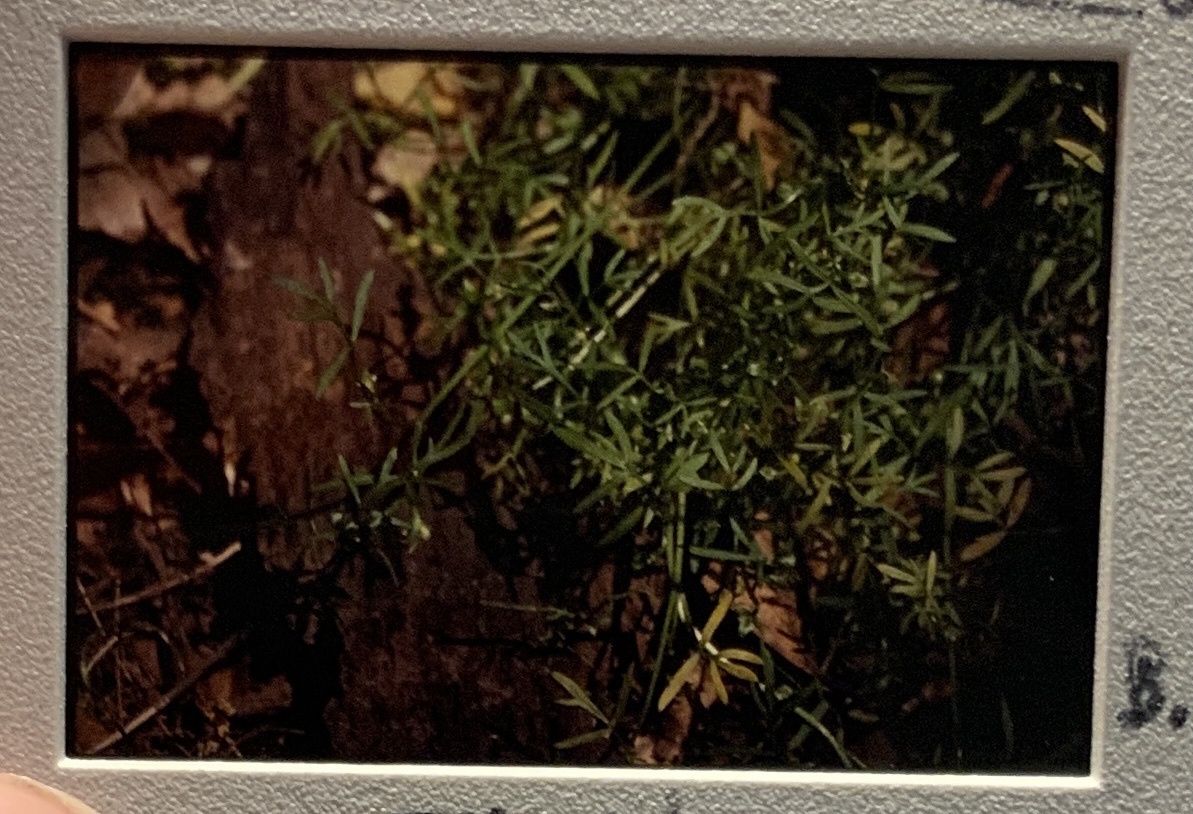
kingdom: Plantae
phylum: Tracheophyta
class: Magnoliopsida
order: Brassicales
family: Limnanthaceae
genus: Floerkea
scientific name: Floerkea proserpinacoides
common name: False mermaid
